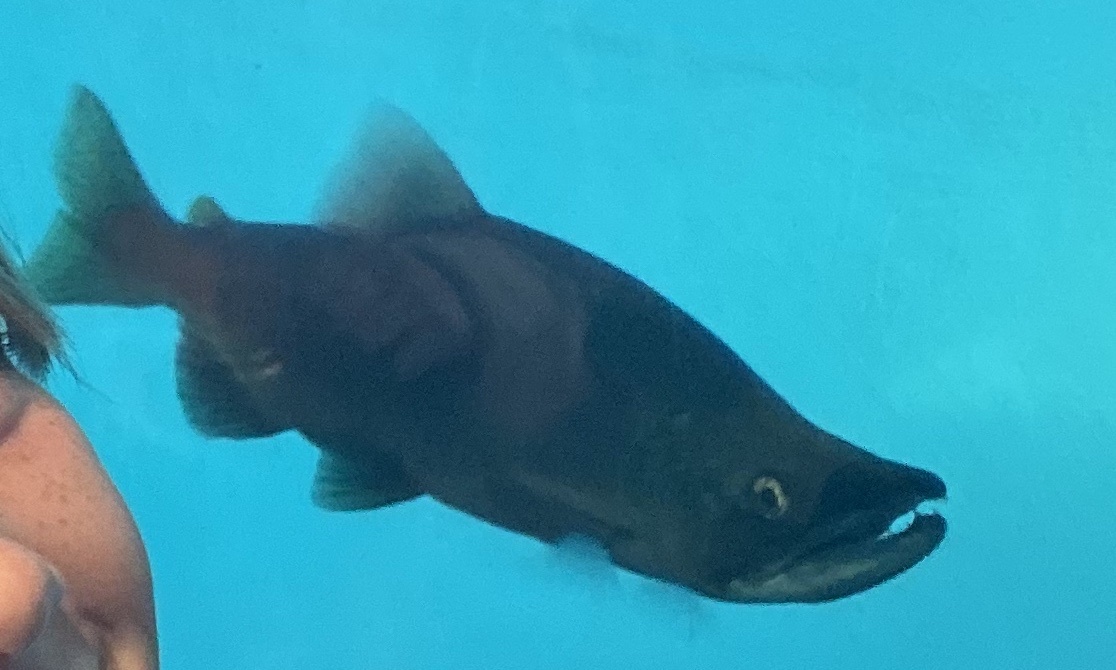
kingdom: Animalia
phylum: Chordata
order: Salmoniformes
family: Salmonidae
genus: Oncorhynchus
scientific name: Oncorhynchus nerka
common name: Sockeye salmon
